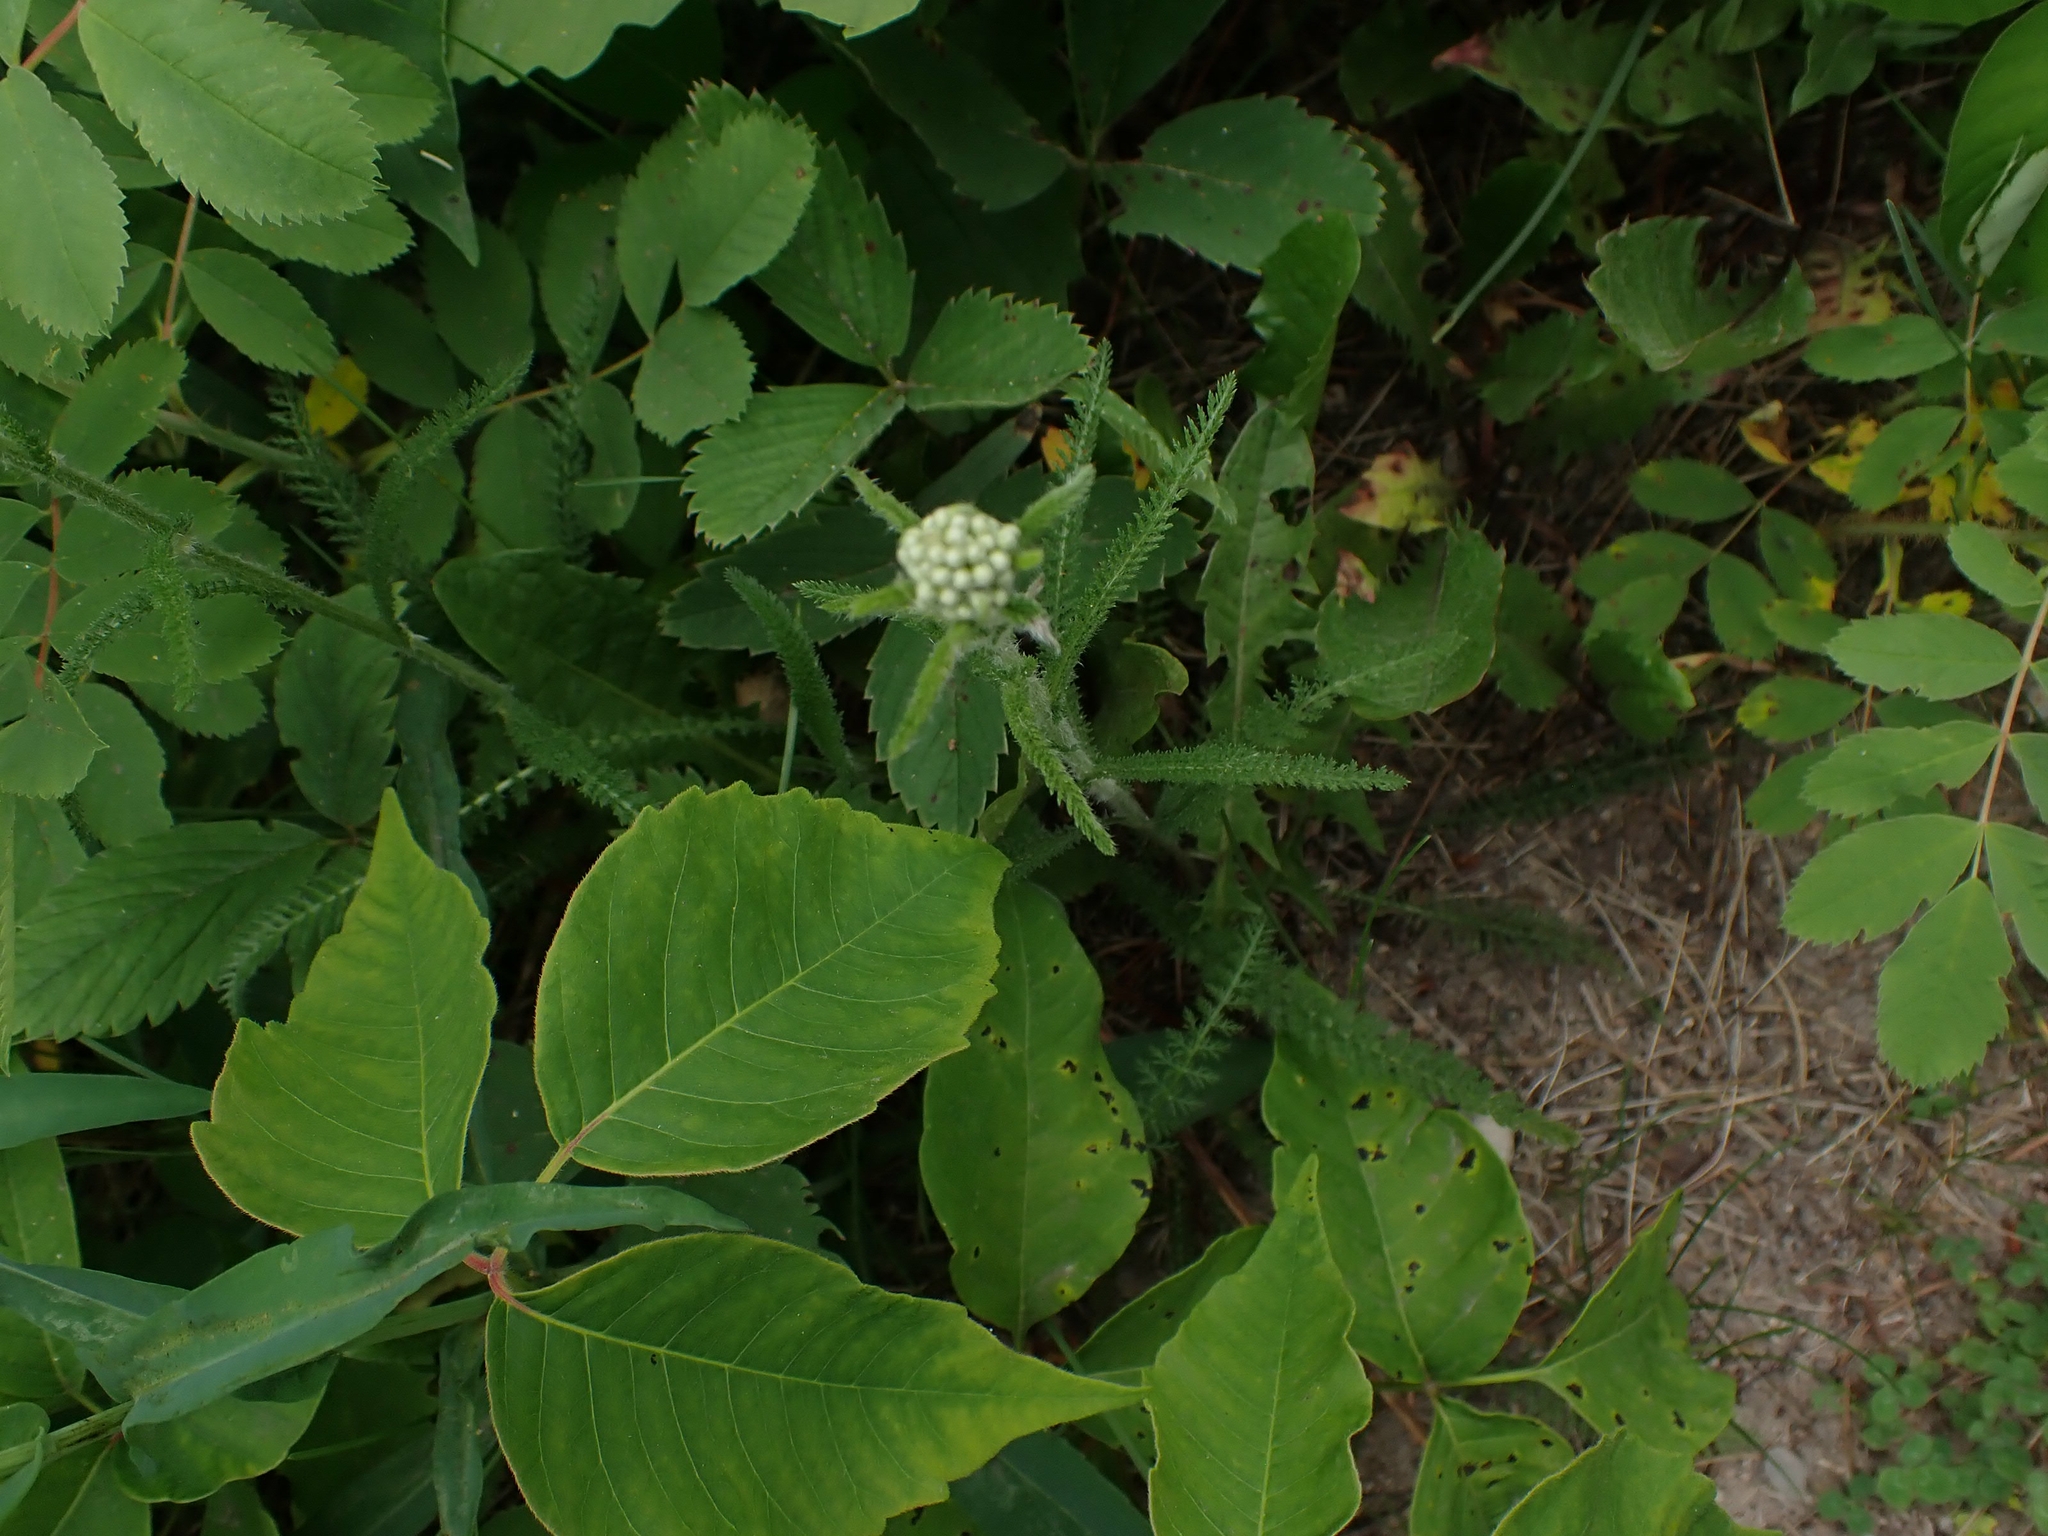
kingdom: Plantae
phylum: Tracheophyta
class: Magnoliopsida
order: Asterales
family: Asteraceae
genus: Achillea
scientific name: Achillea millefolium
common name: Yarrow
